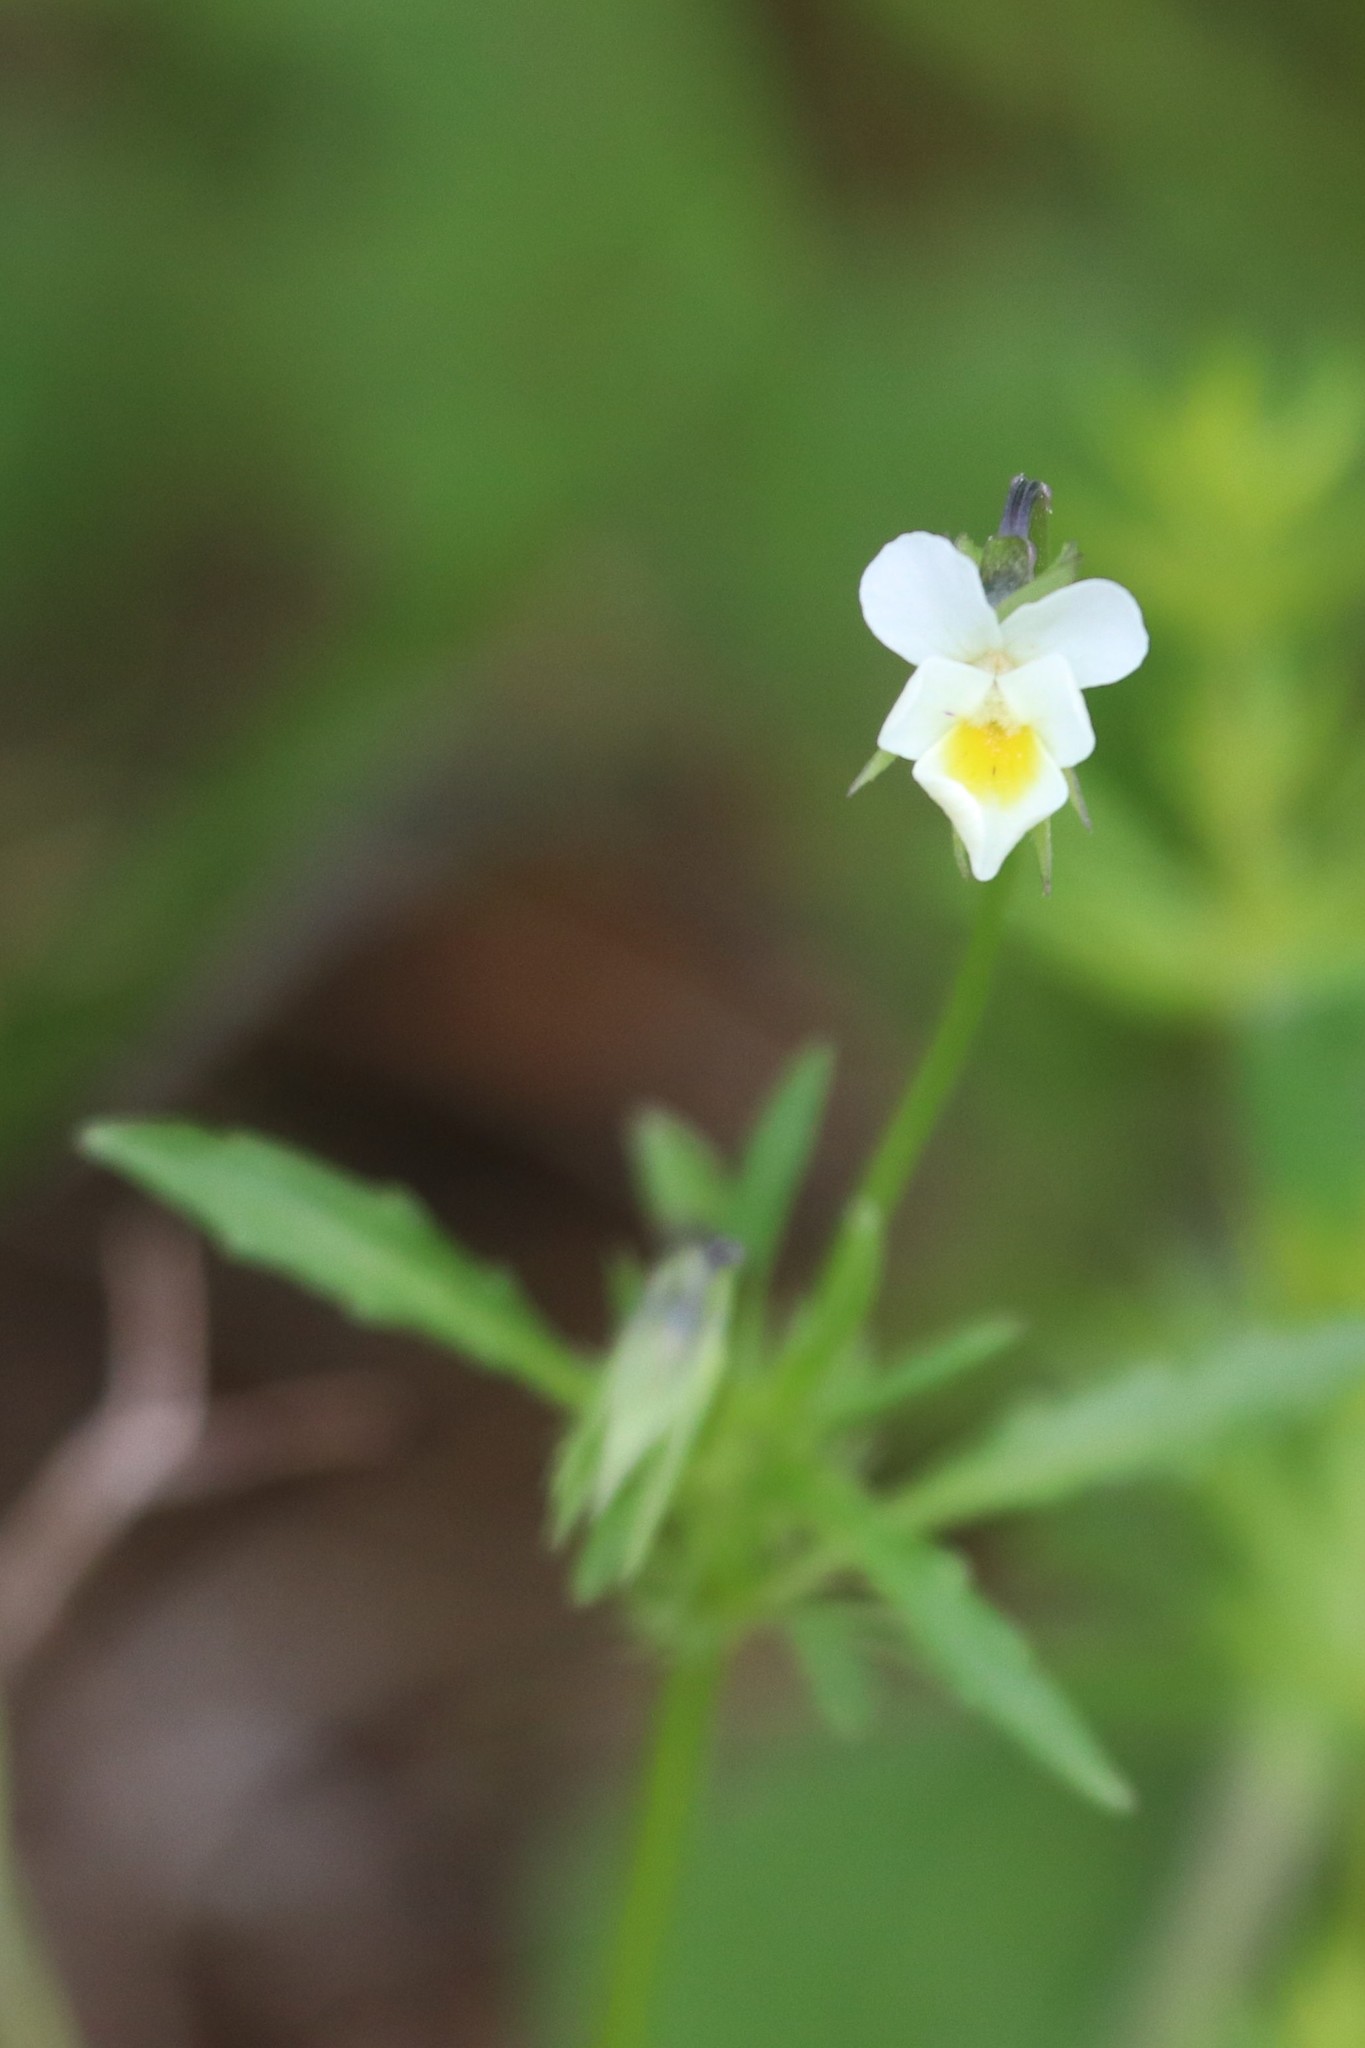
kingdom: Plantae
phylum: Tracheophyta
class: Magnoliopsida
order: Malpighiales
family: Violaceae
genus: Viola
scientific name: Viola arvensis
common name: Field pansy
